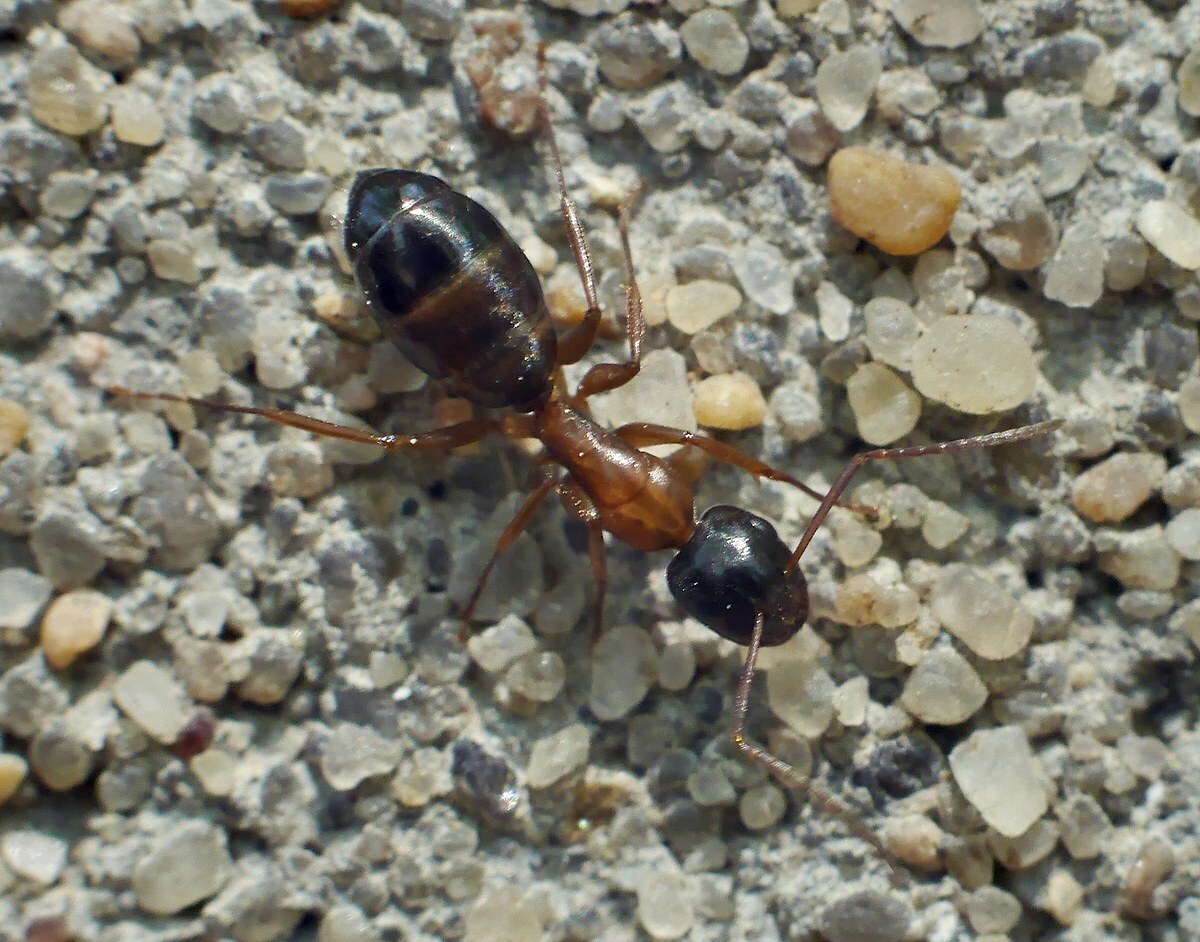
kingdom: Animalia
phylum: Arthropoda
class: Insecta
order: Hymenoptera
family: Formicidae
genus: Camponotus
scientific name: Camponotus fallax
